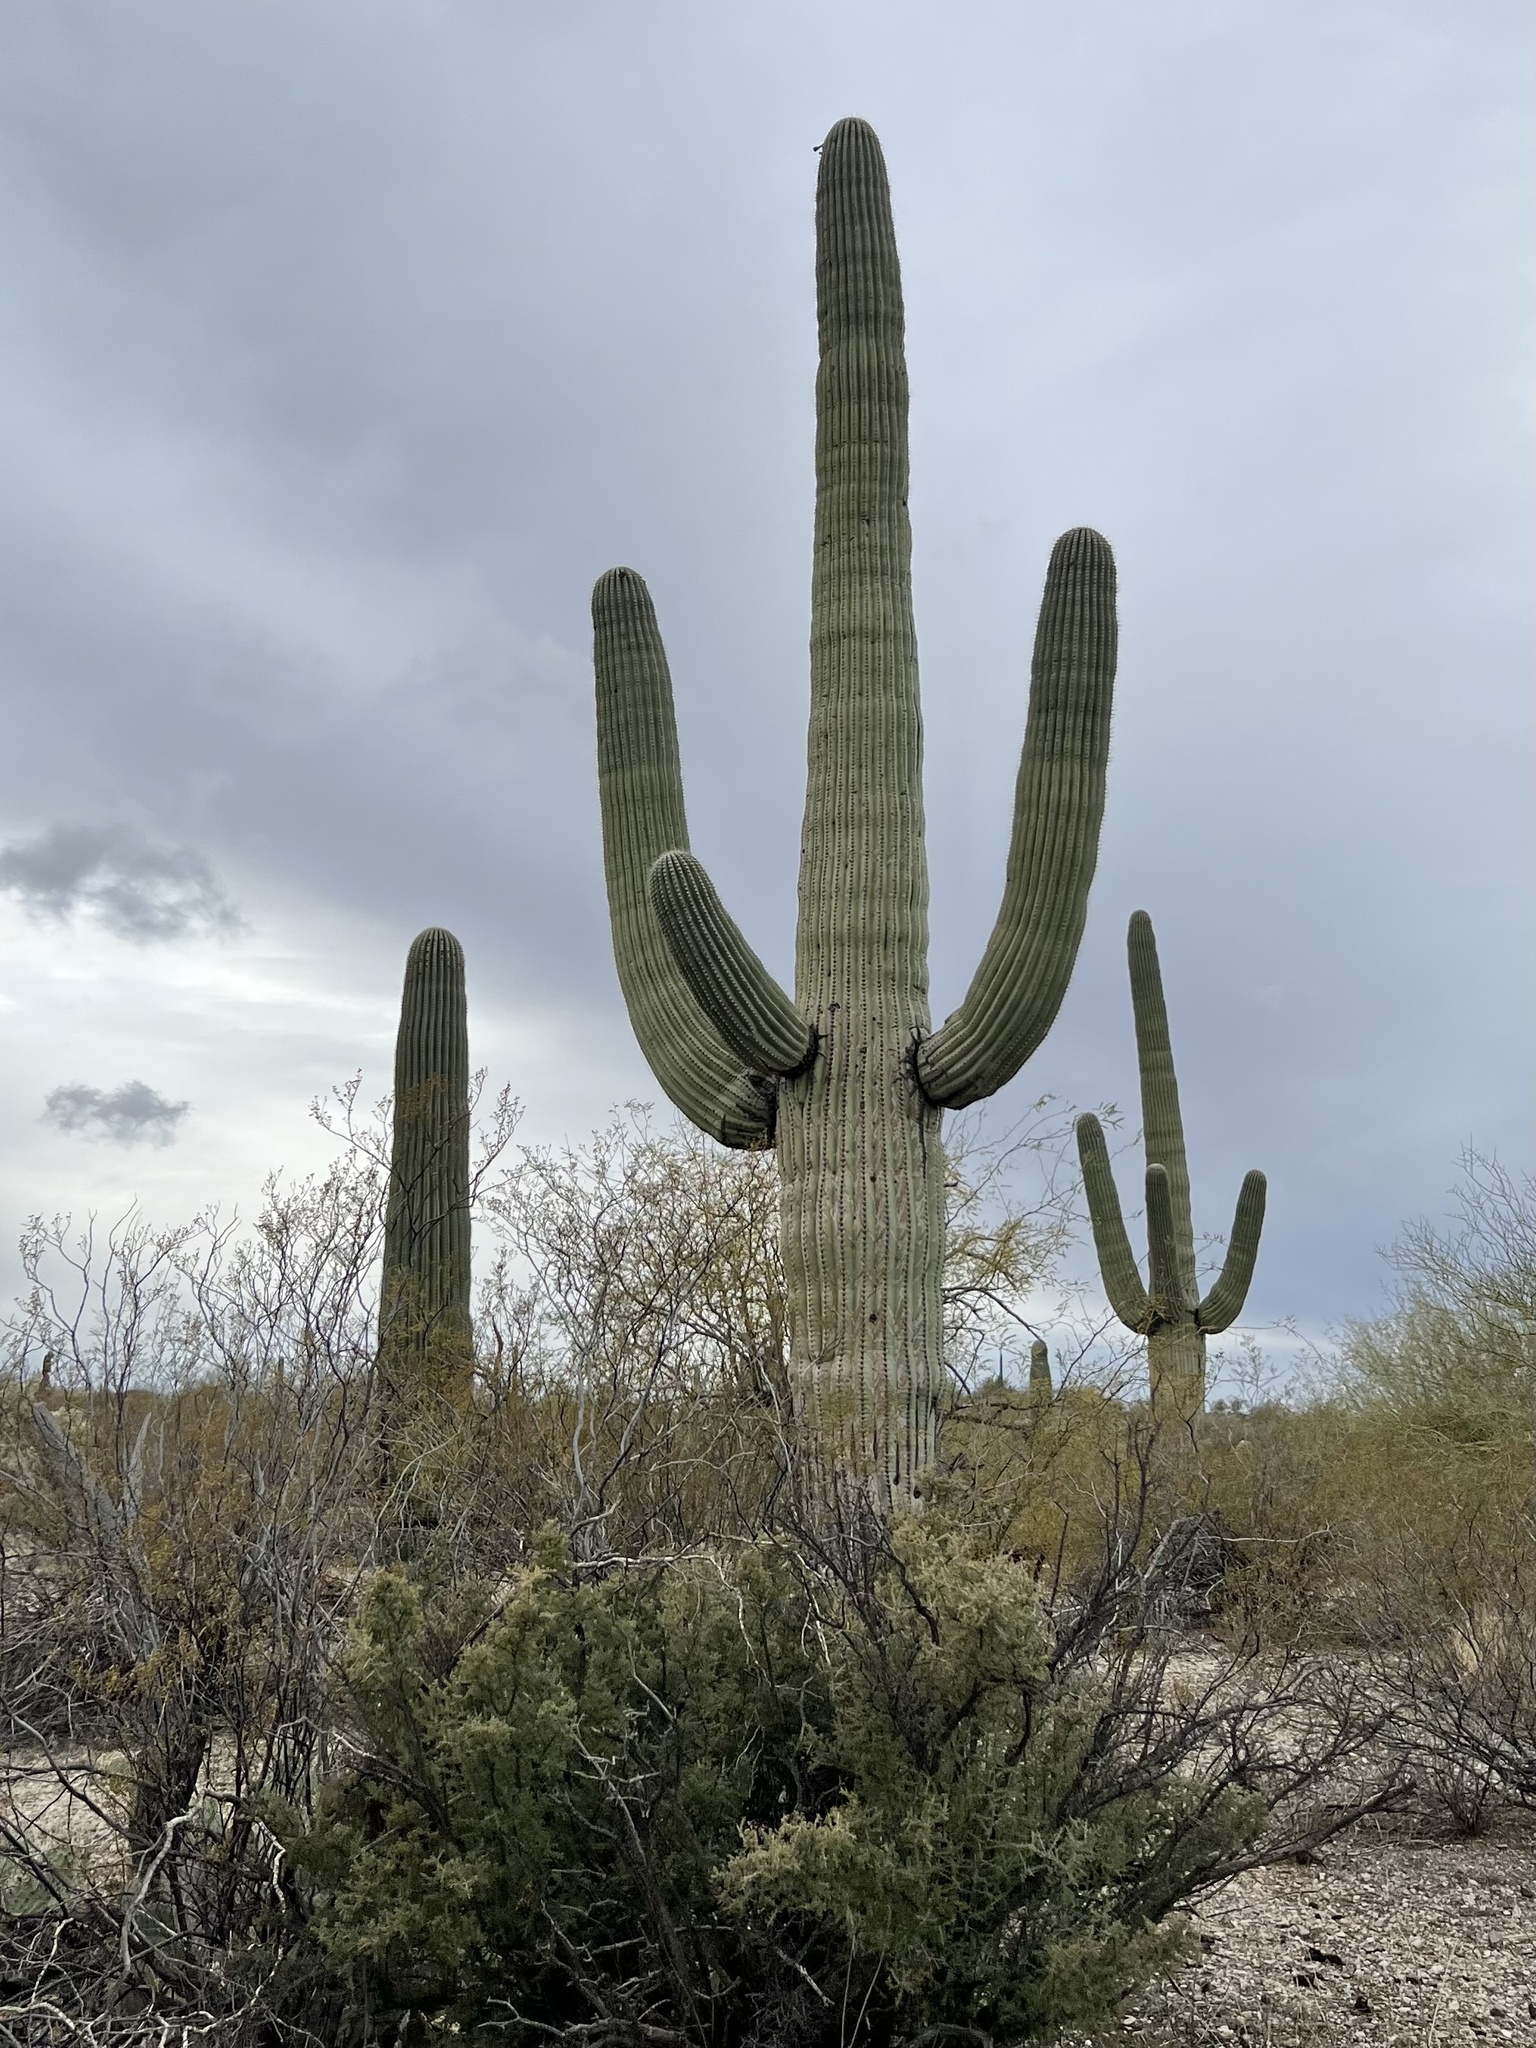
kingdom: Plantae
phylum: Tracheophyta
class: Magnoliopsida
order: Caryophyllales
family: Cactaceae
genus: Carnegiea
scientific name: Carnegiea gigantea
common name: Saguaro
